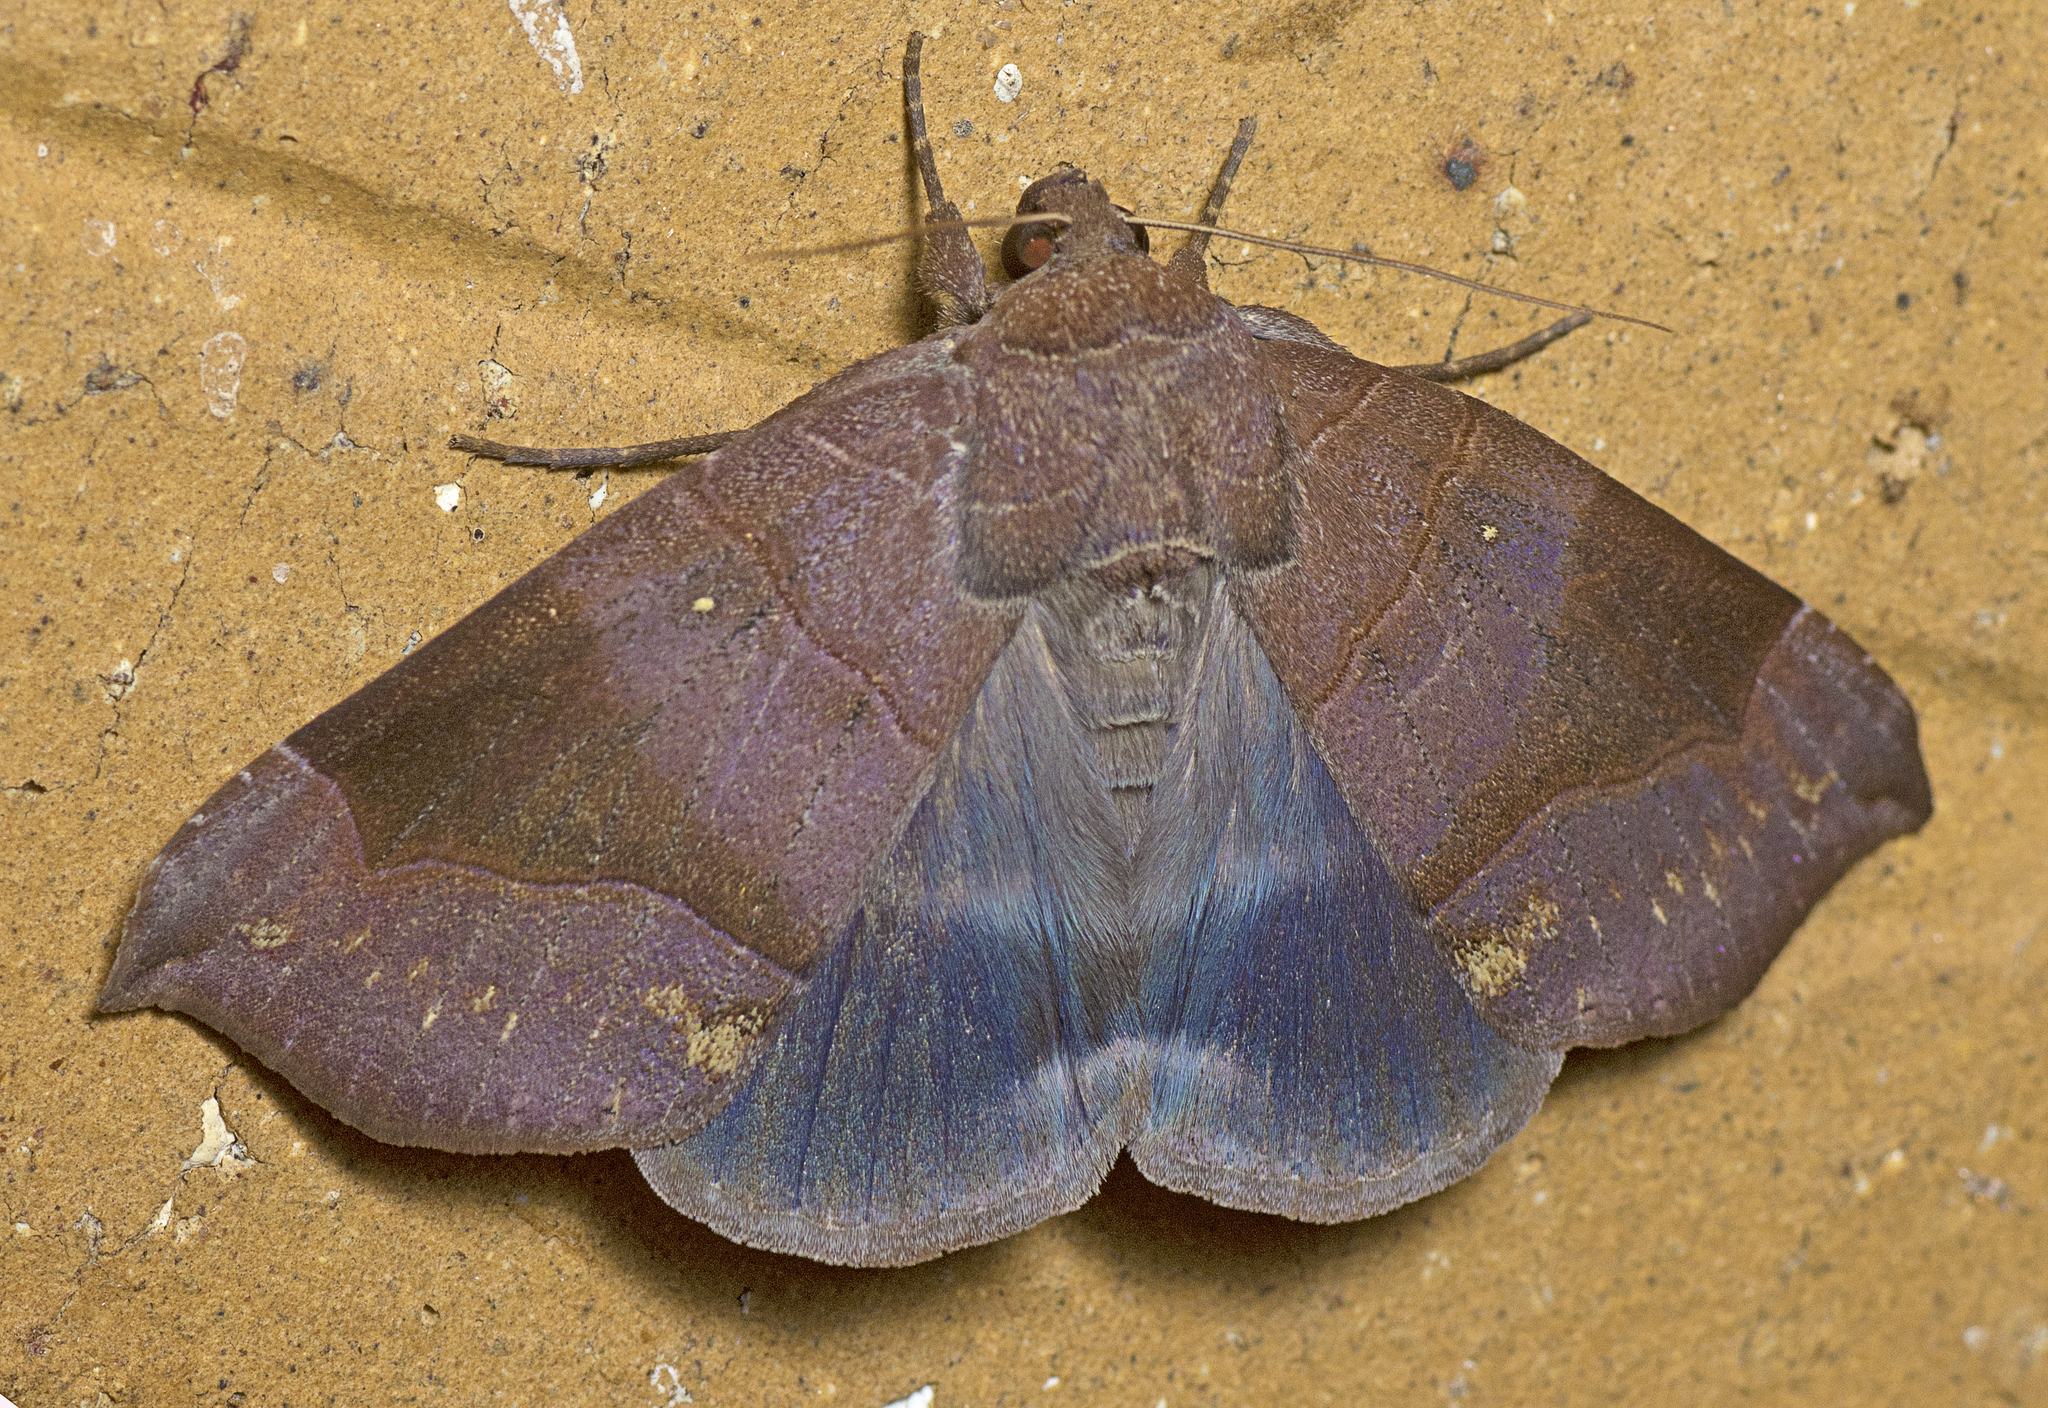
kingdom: Animalia
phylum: Arthropoda
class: Insecta
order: Lepidoptera
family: Erebidae
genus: Dysgonia
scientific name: Dysgonia hamatilis
